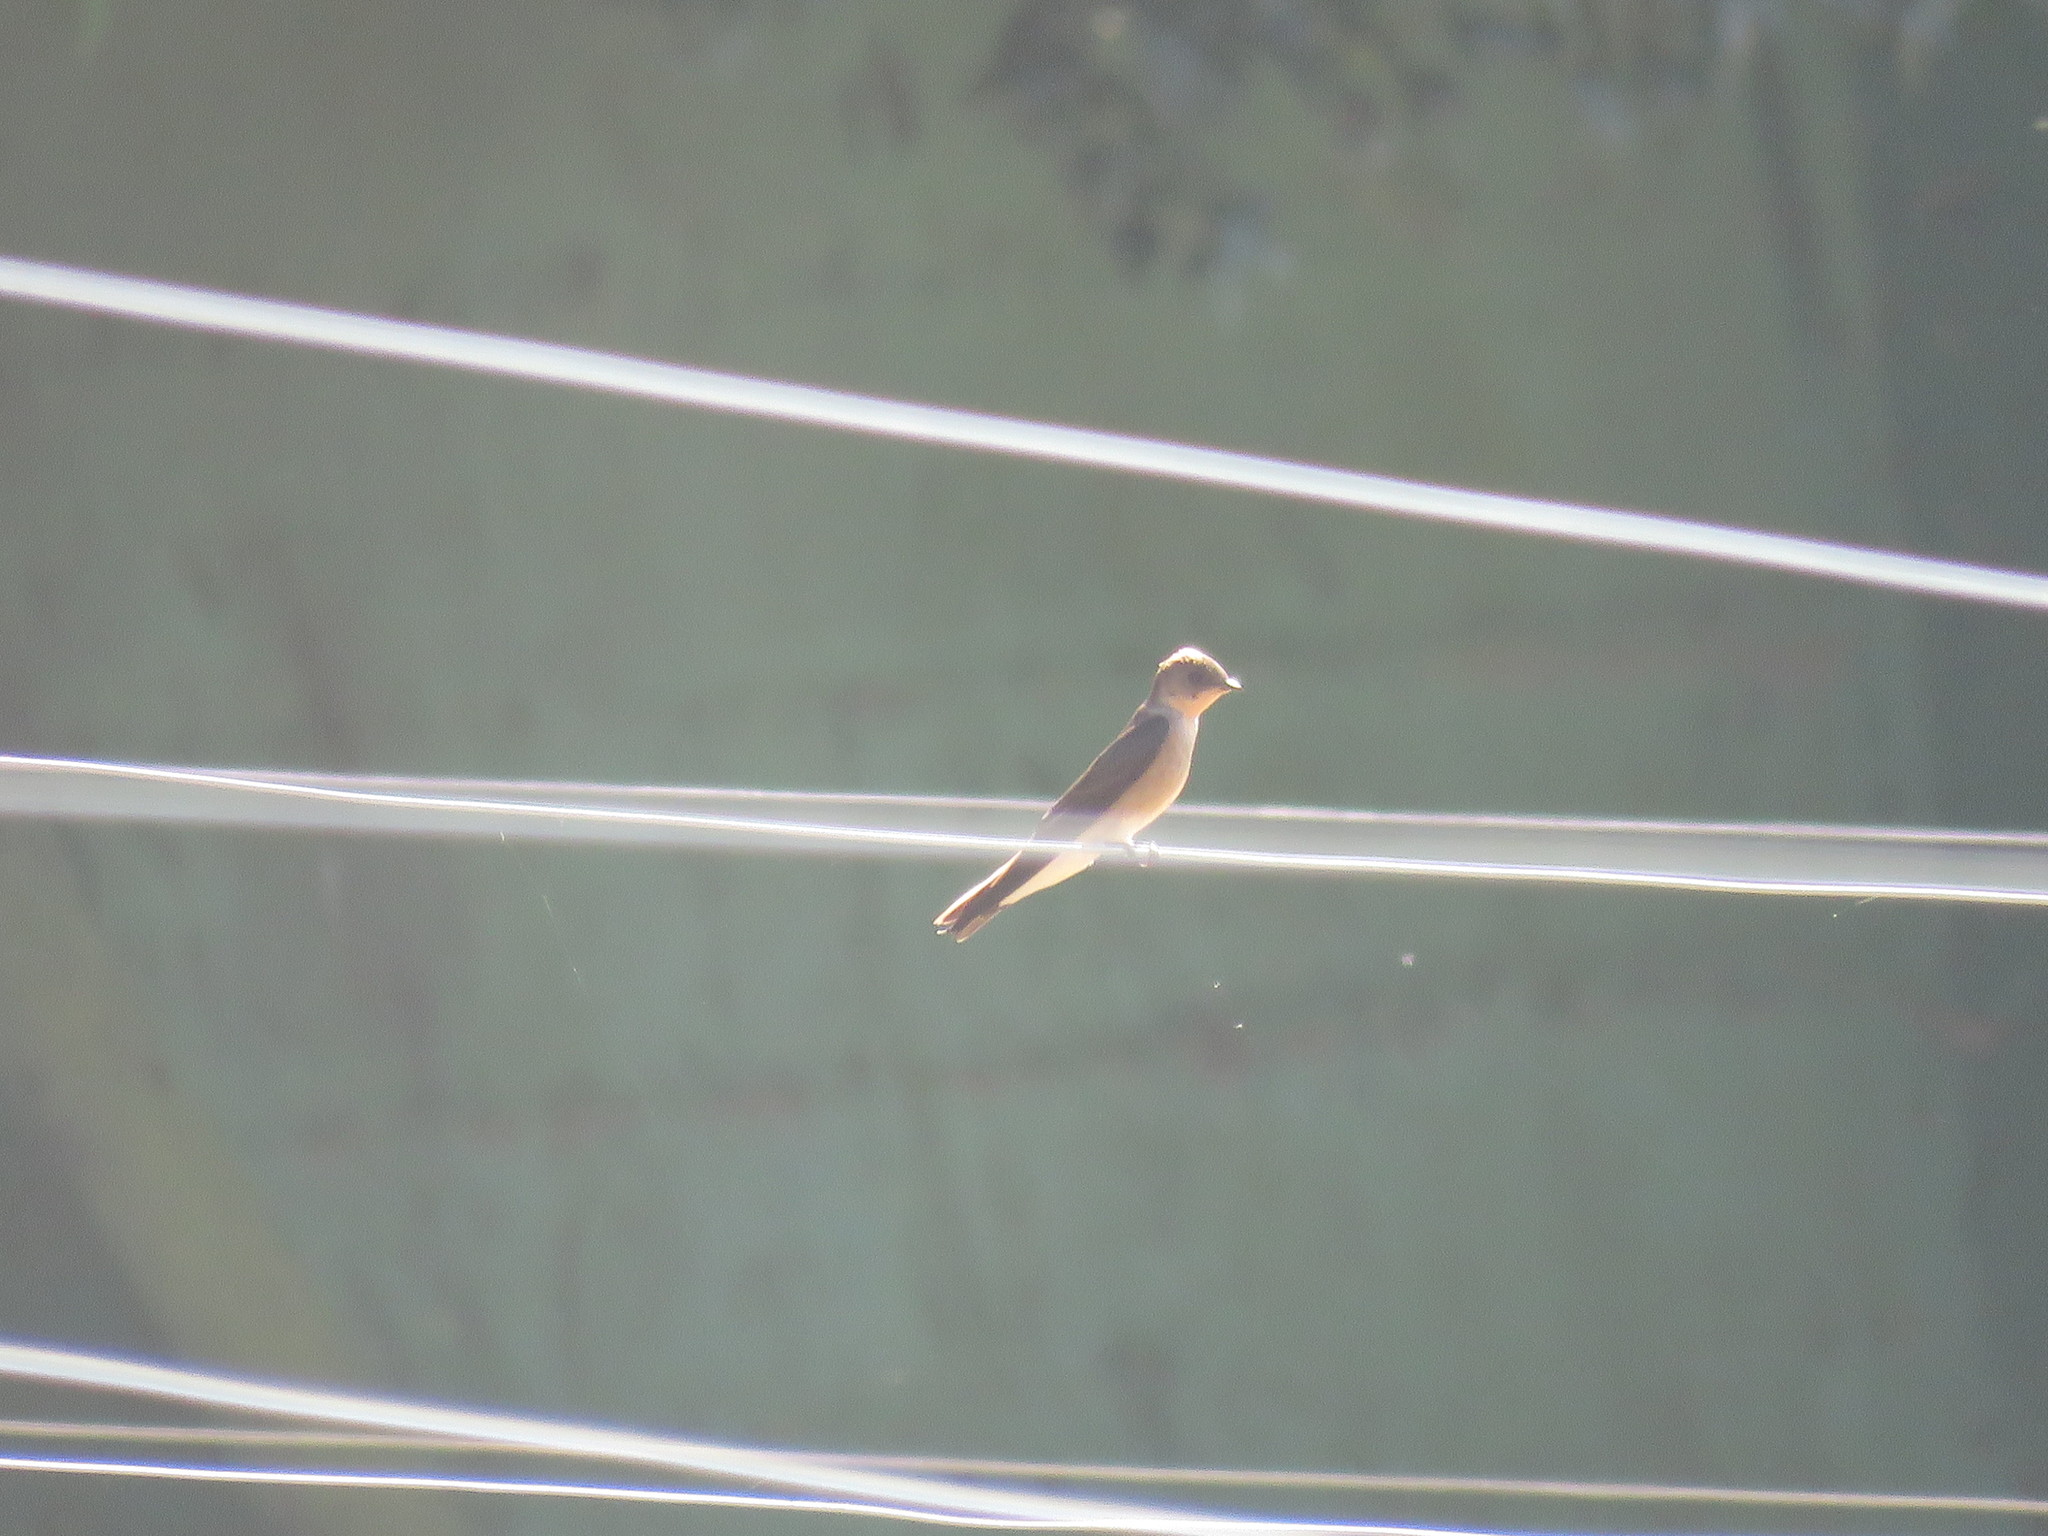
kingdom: Animalia
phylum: Chordata
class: Aves
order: Passeriformes
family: Hirundinidae
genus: Stelgidopteryx
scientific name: Stelgidopteryx ruficollis
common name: Southern rough-winged swallow
